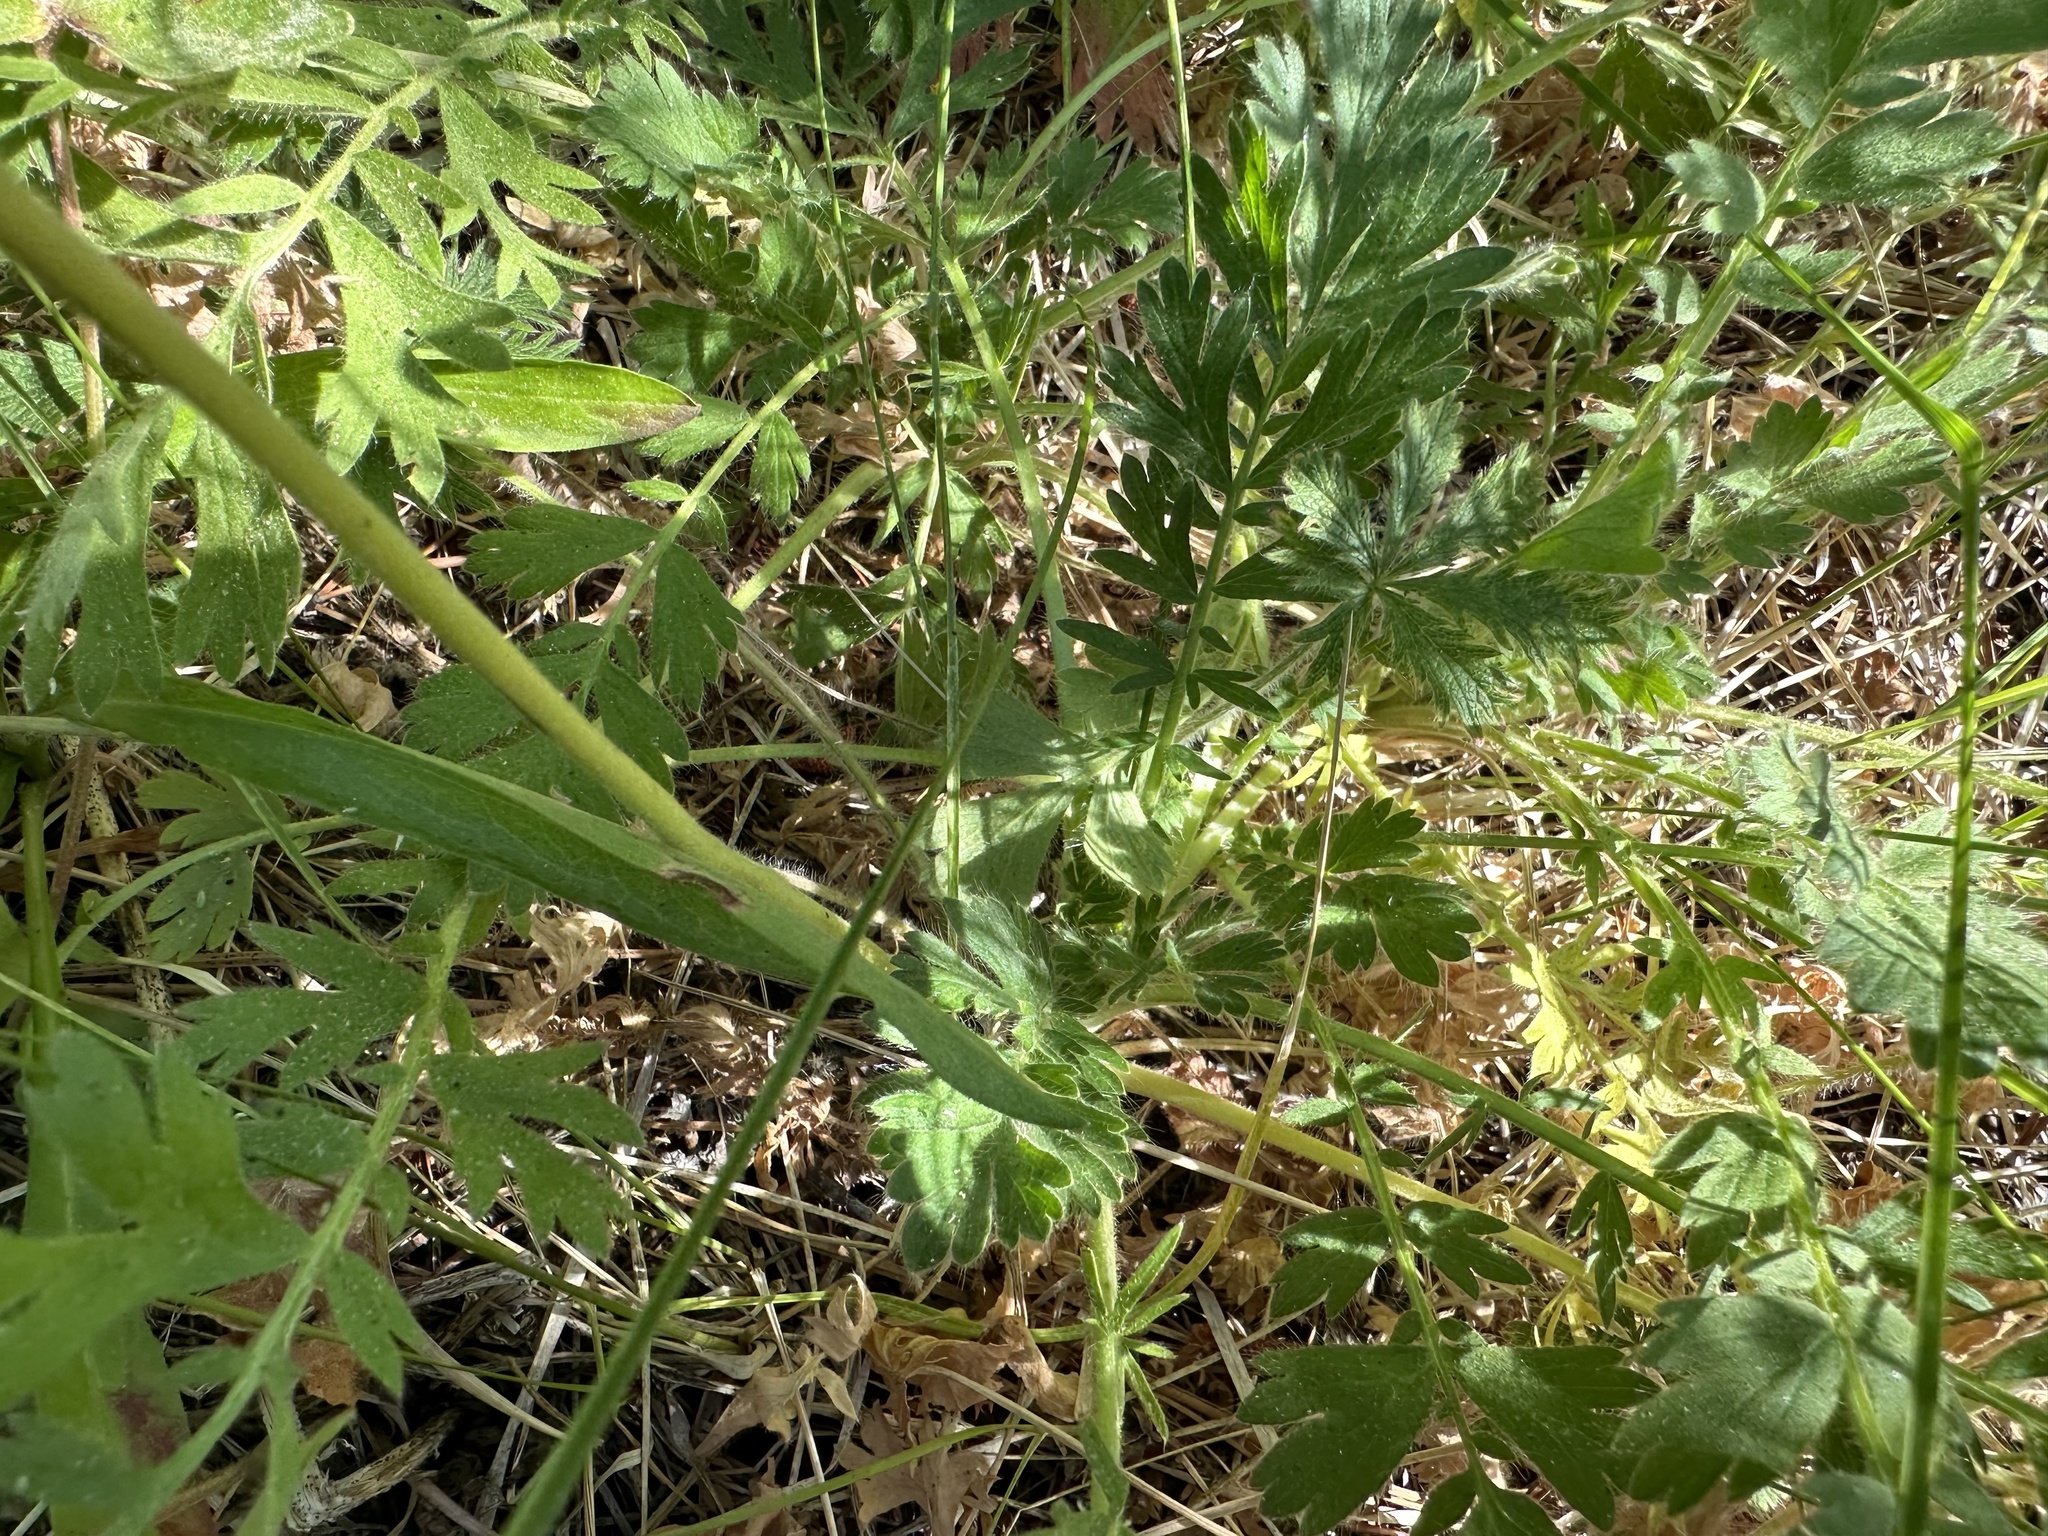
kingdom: Plantae
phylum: Tracheophyta
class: Magnoliopsida
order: Rosales
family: Rosaceae
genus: Geum
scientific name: Geum triflorum
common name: Old man's whiskers
